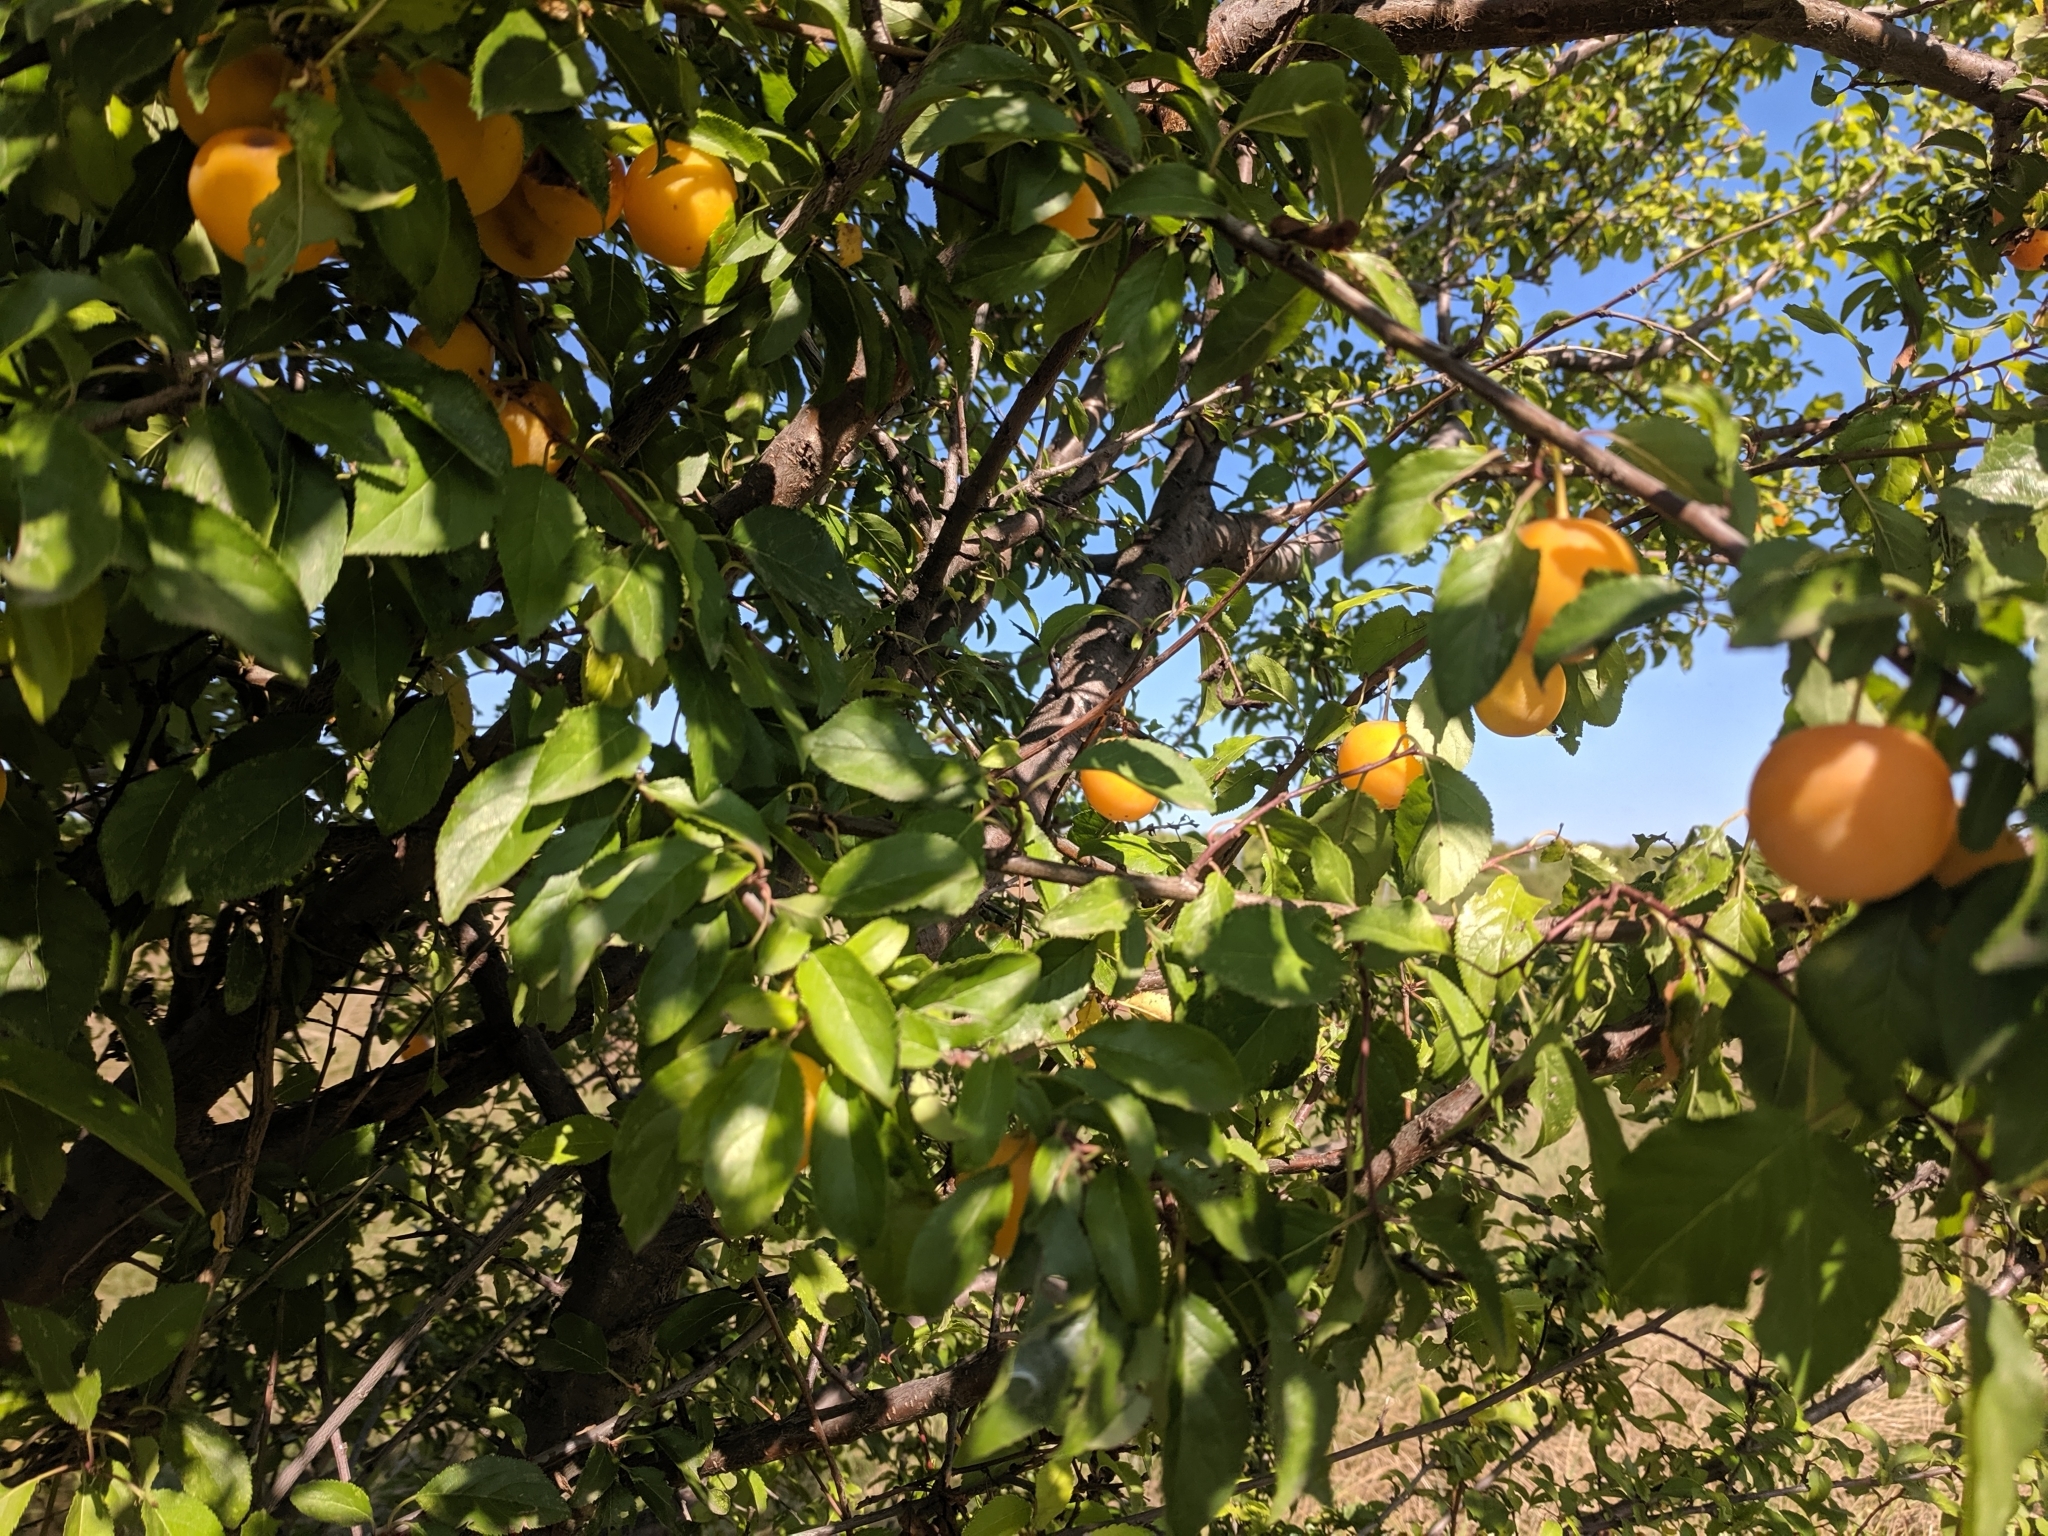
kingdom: Plantae
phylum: Tracheophyta
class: Magnoliopsida
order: Rosales
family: Rosaceae
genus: Prunus
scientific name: Prunus domestica
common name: Wild plum
